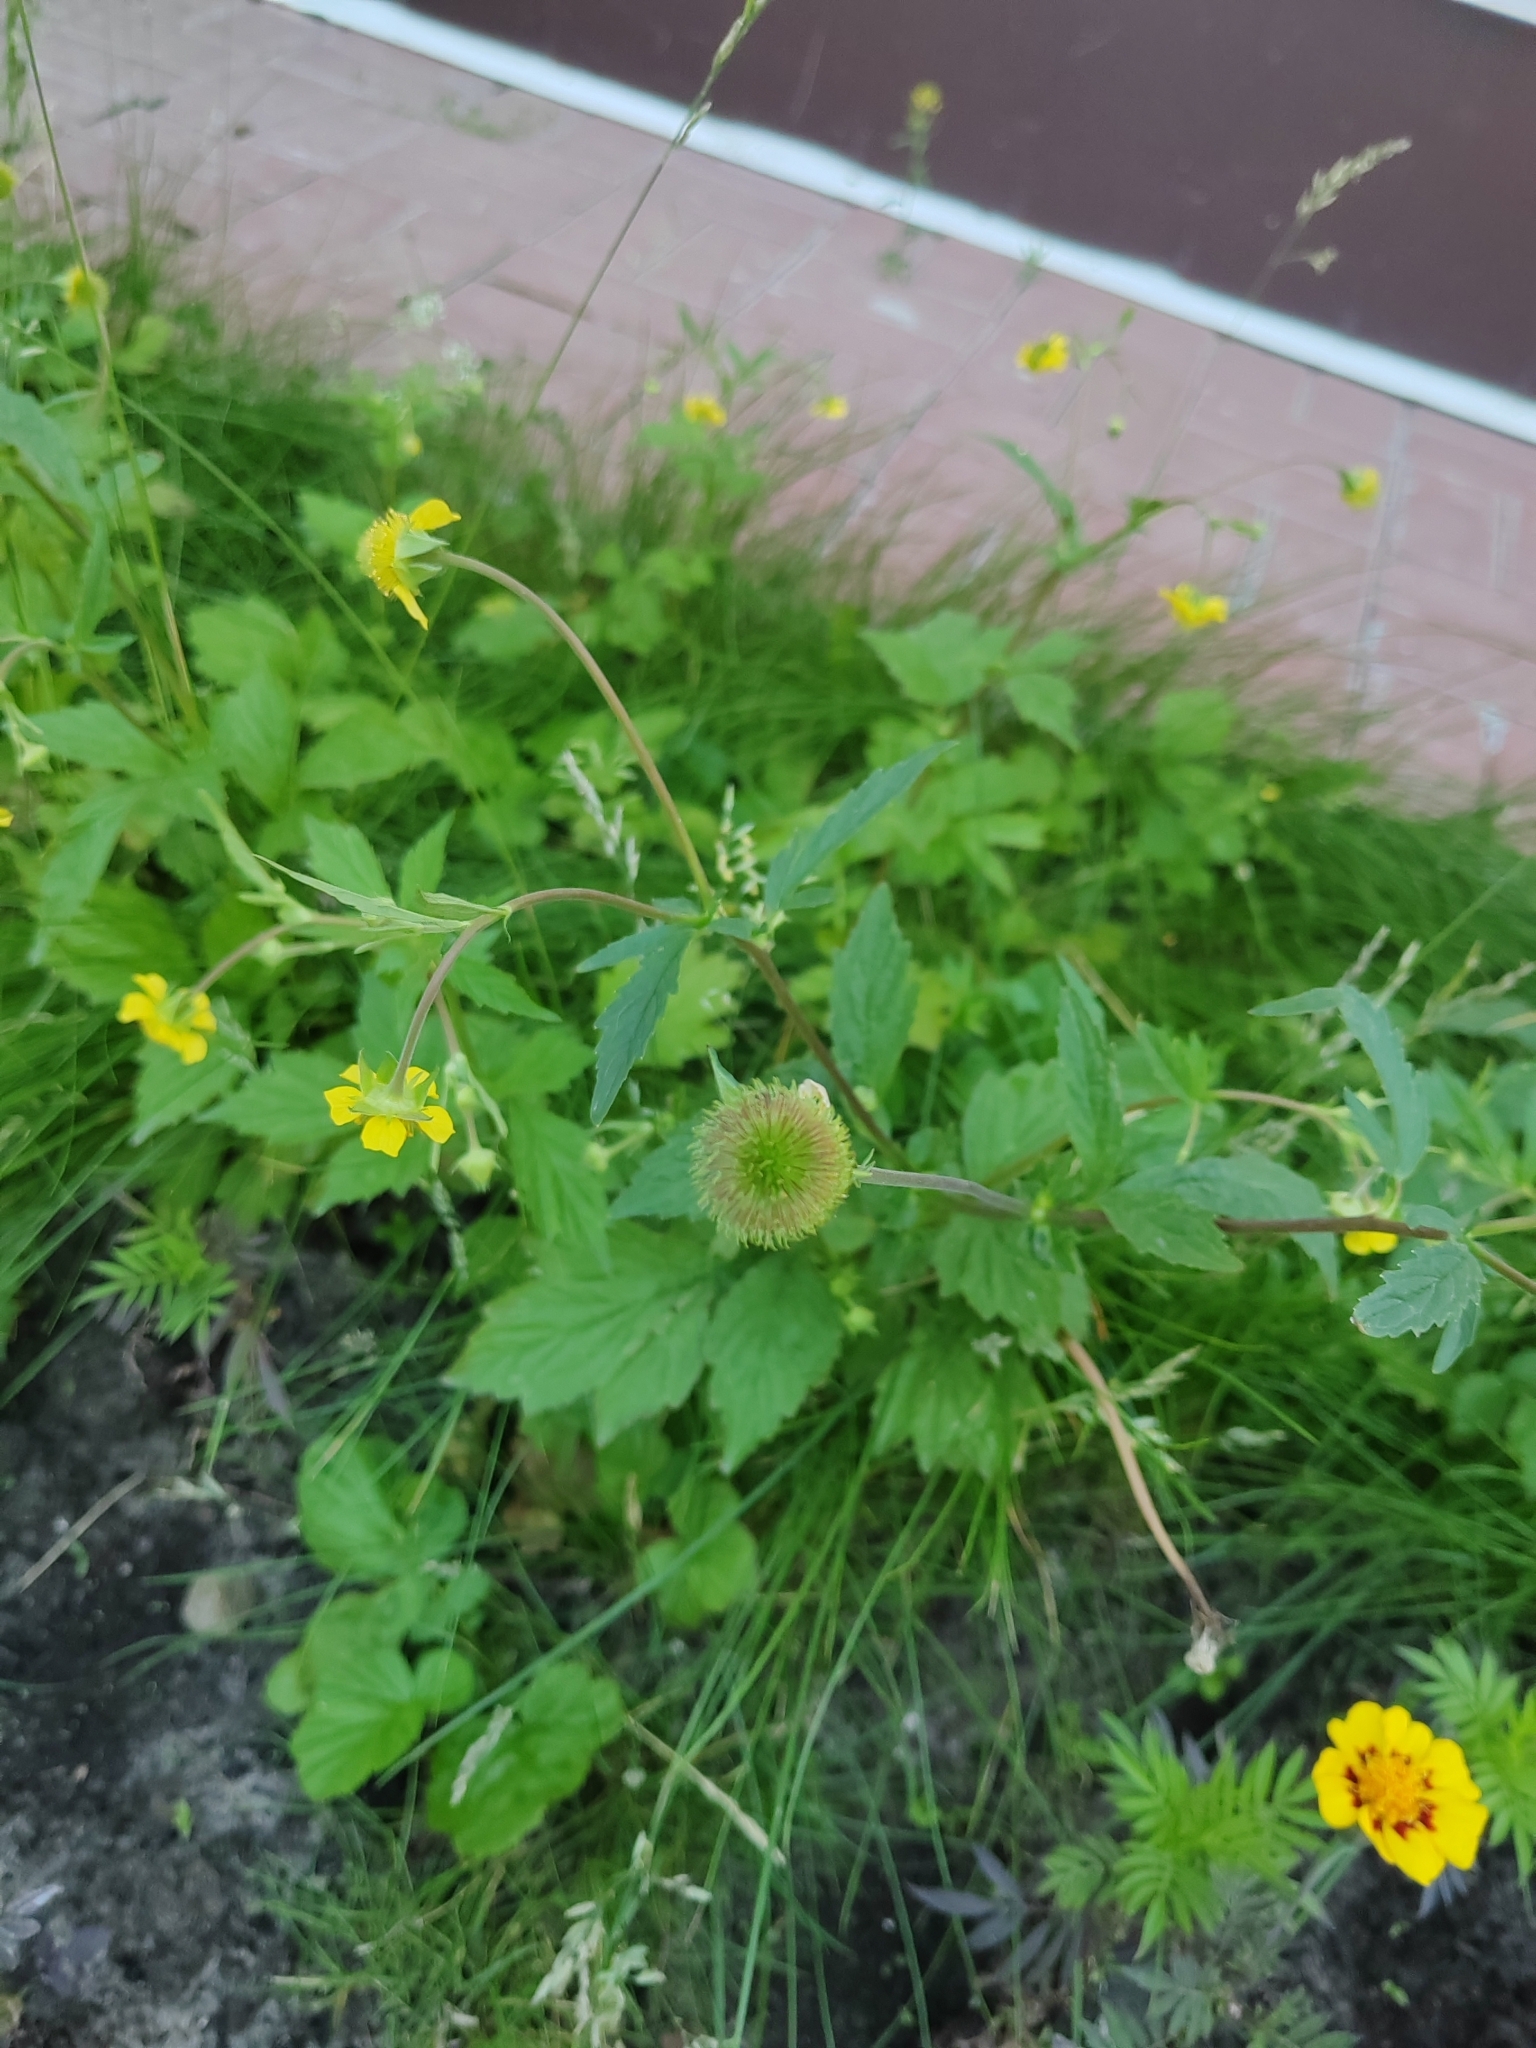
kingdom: Plantae
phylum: Tracheophyta
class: Magnoliopsida
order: Rosales
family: Rosaceae
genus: Geum
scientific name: Geum aleppicum
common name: Yellow avens
